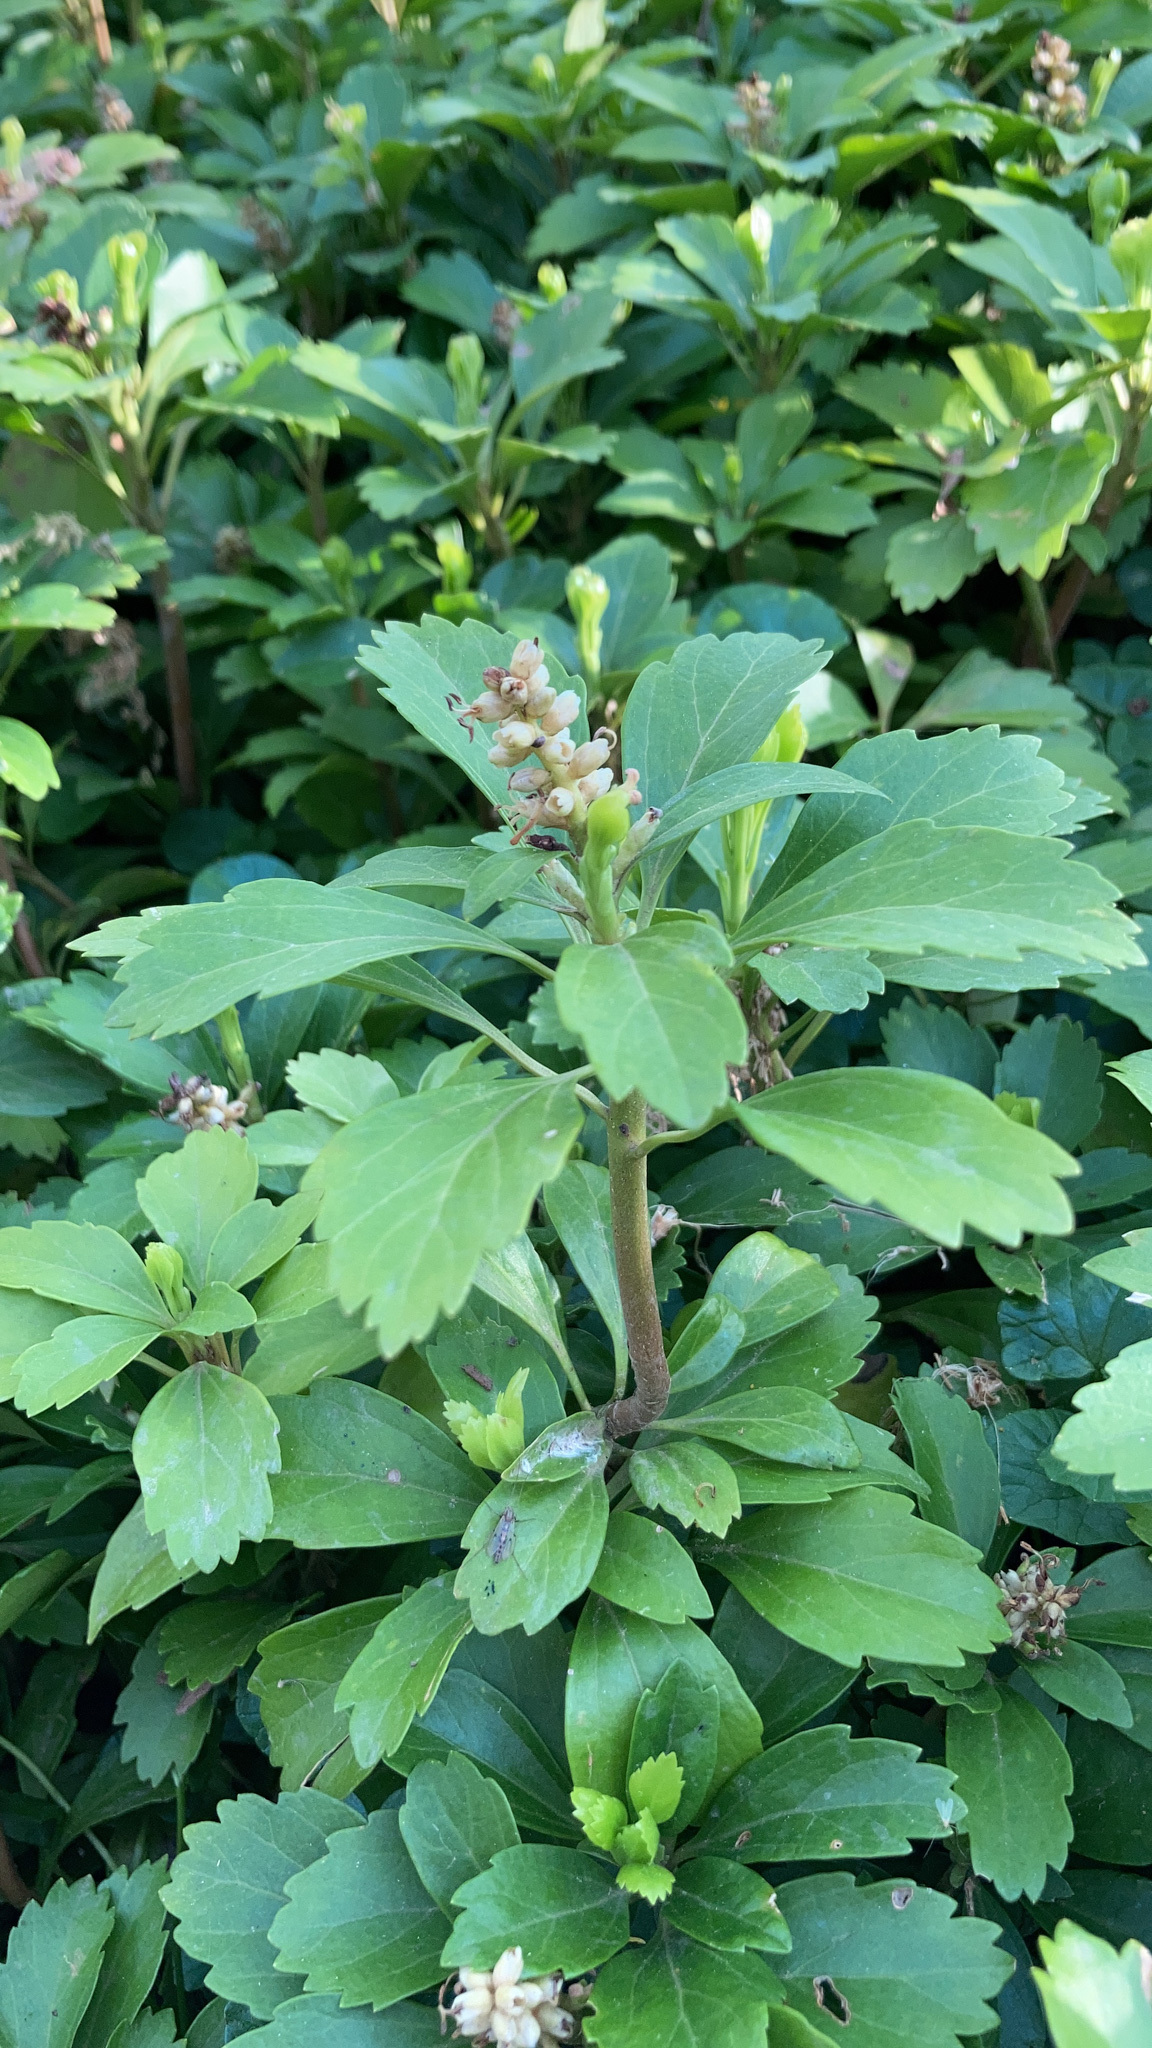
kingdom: Plantae
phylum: Tracheophyta
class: Magnoliopsida
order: Buxales
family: Buxaceae
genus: Pachysandra
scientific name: Pachysandra terminalis
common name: Japanese pachysandra
